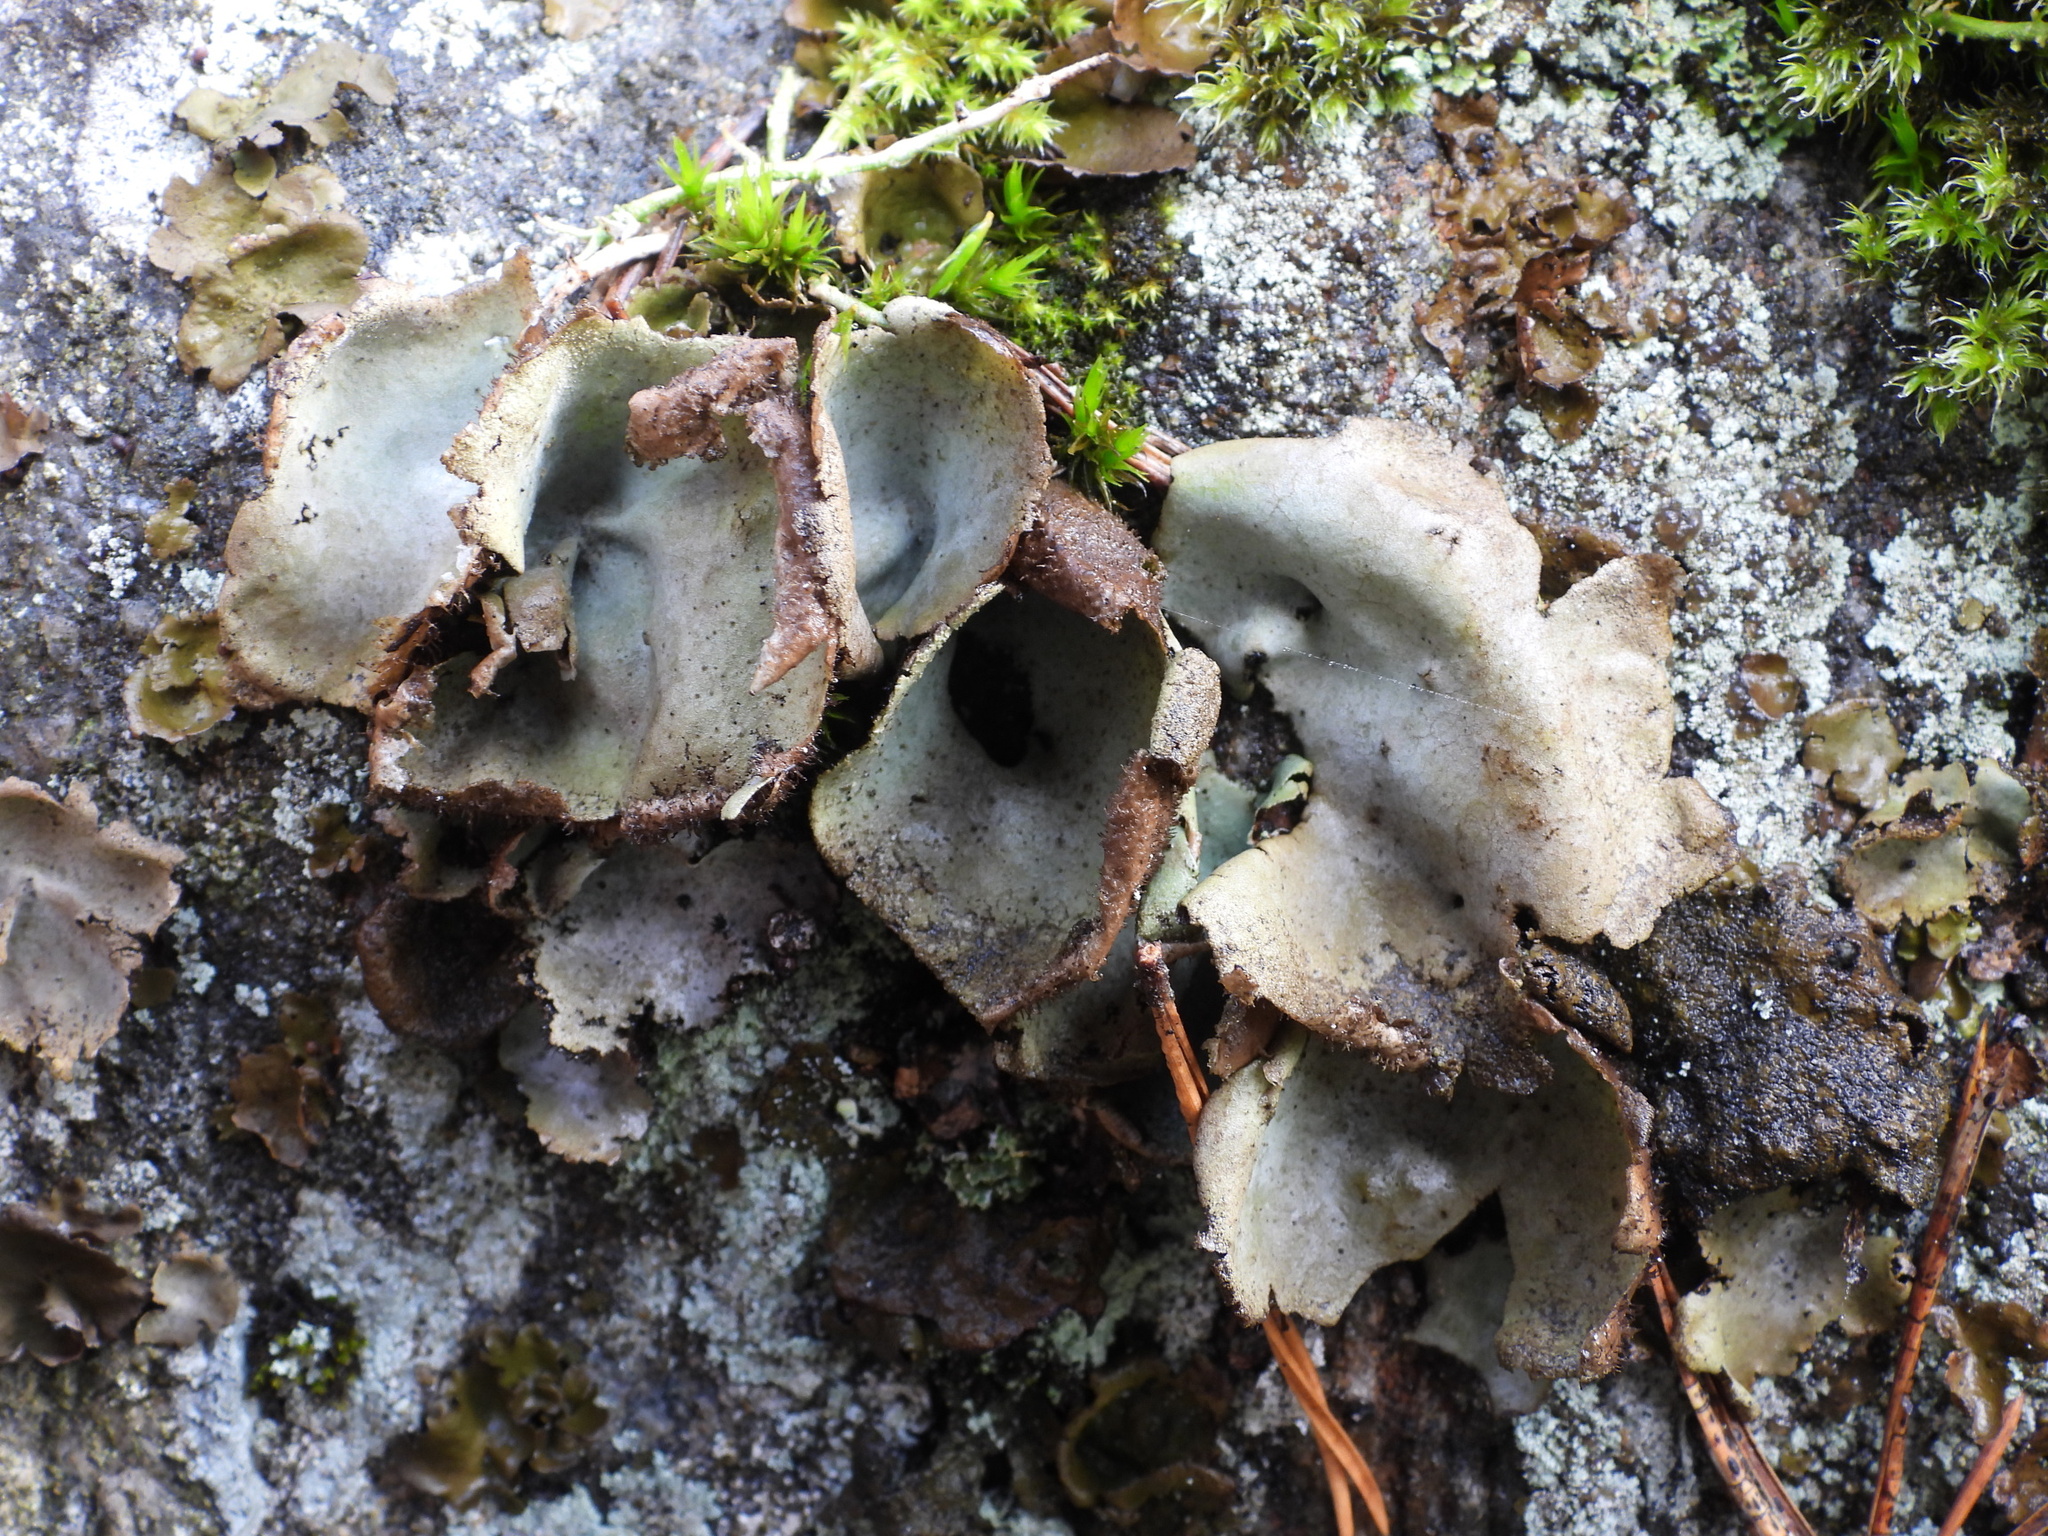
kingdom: Fungi
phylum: Ascomycota
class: Lecanoromycetes
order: Umbilicariales
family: Umbilicariaceae
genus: Umbilicaria
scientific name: Umbilicaria hirsuta
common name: Granulating rocktripe lichen
